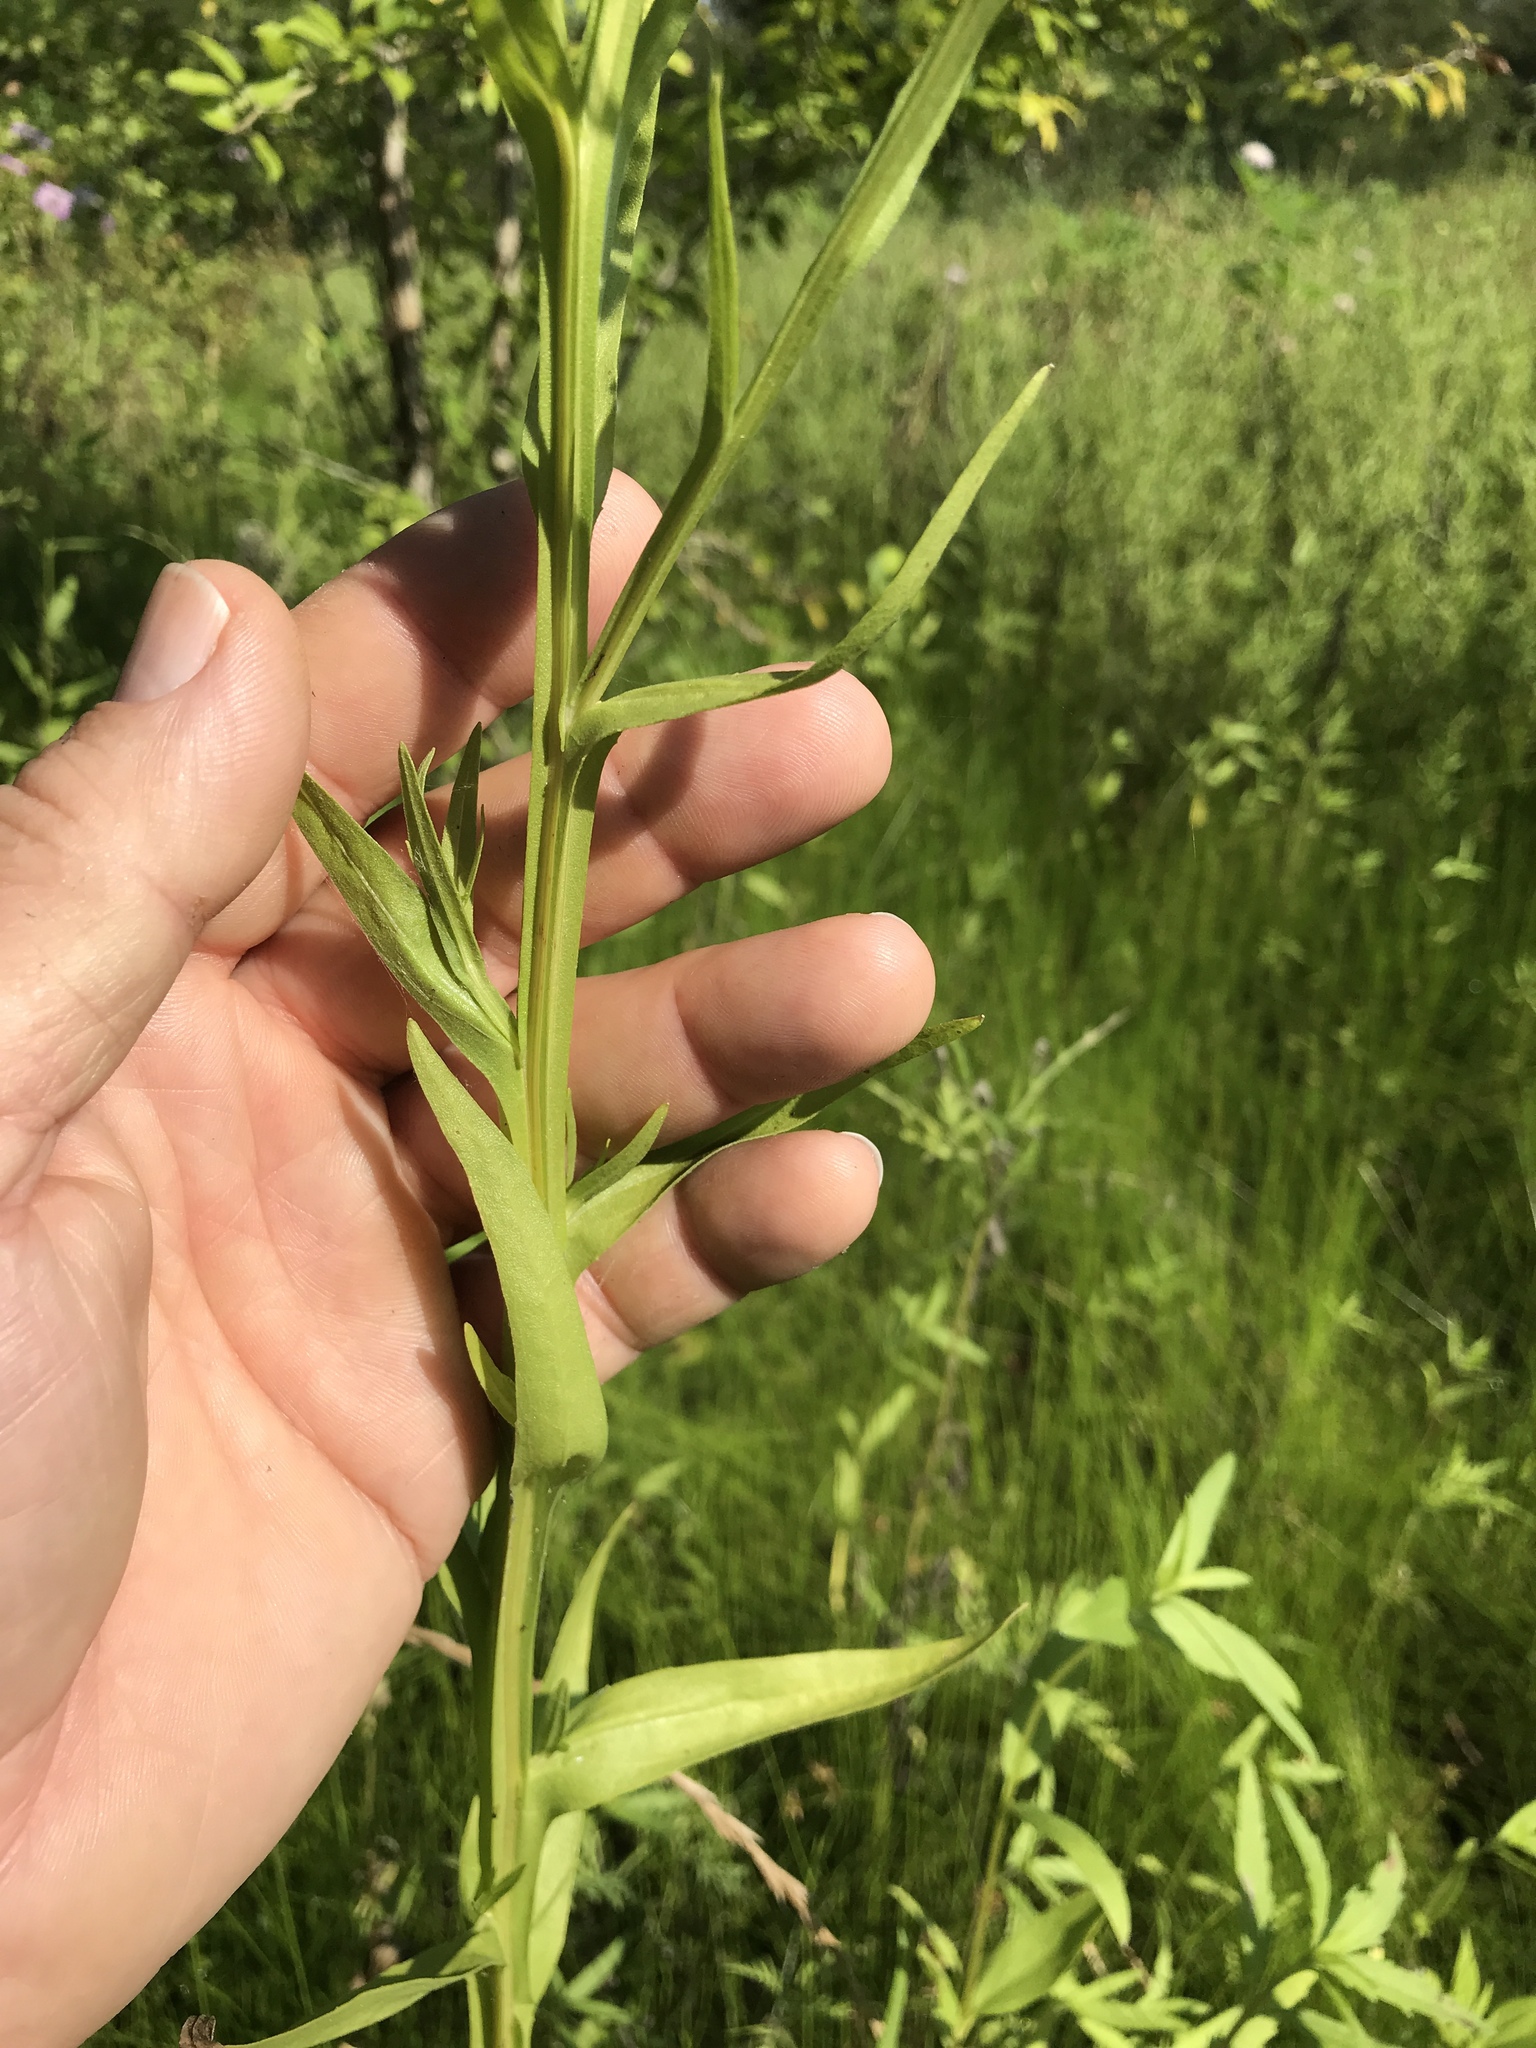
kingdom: Plantae
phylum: Tracheophyta
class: Magnoliopsida
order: Asterales
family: Asteraceae
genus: Helenium
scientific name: Helenium microcephalum
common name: Smallhead sneezeweed
